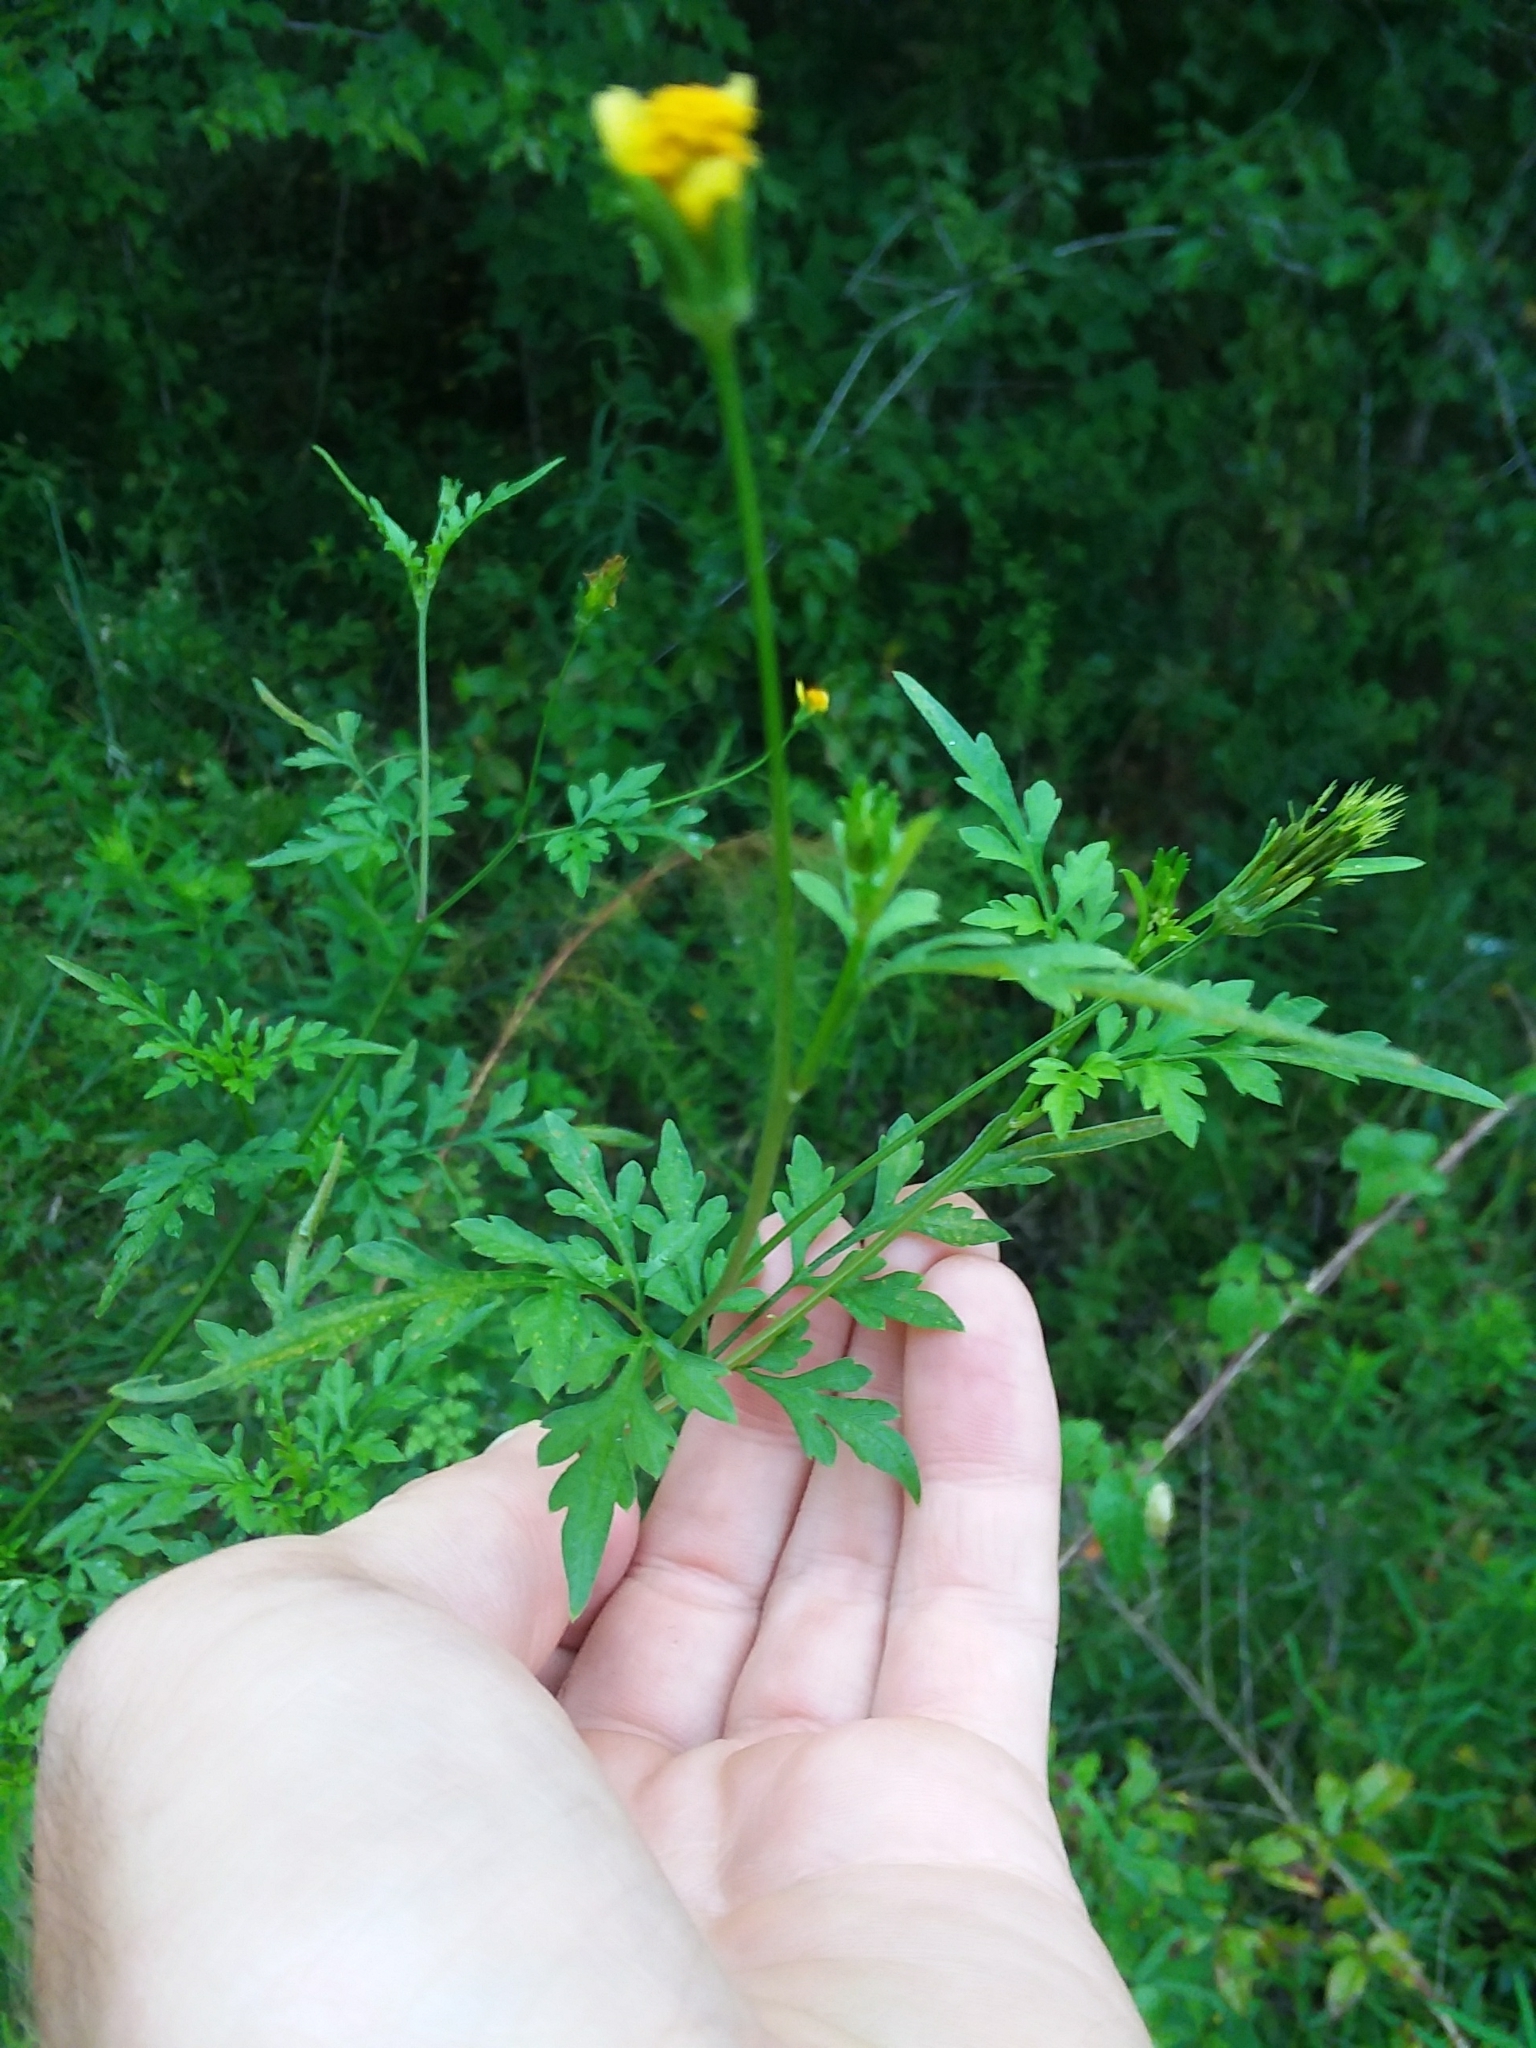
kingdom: Plantae
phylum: Tracheophyta
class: Magnoliopsida
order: Asterales
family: Asteraceae
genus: Bidens
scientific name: Bidens bipinnata
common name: Spanish-needles
